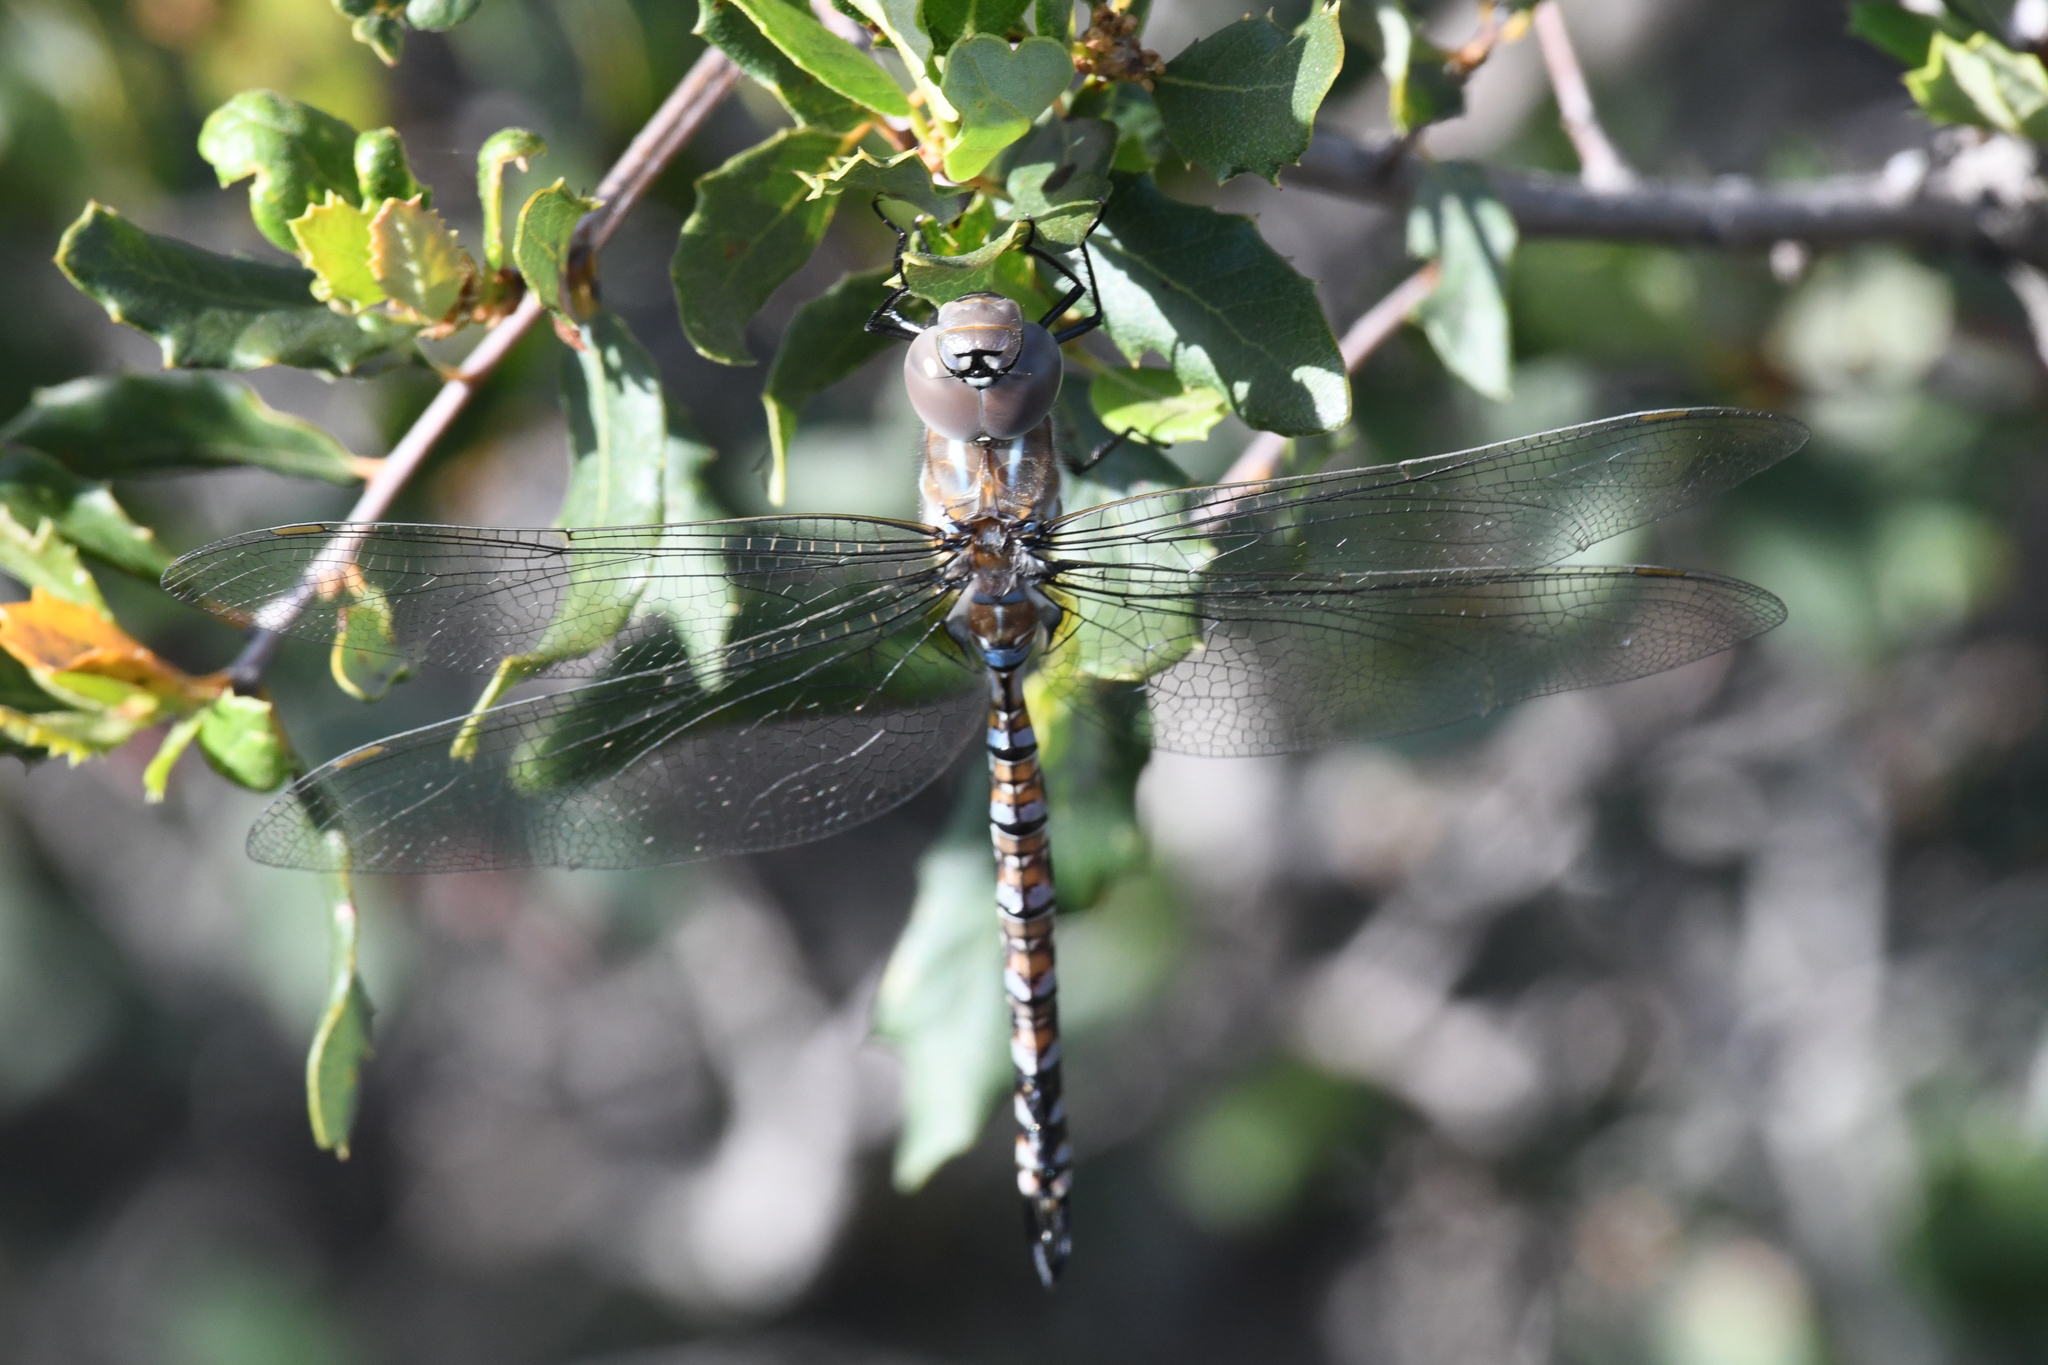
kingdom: Animalia
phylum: Arthropoda
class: Insecta
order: Odonata
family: Aeshnidae
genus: Rhionaeschna
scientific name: Rhionaeschna multicolor
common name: Blue-eyed darner
